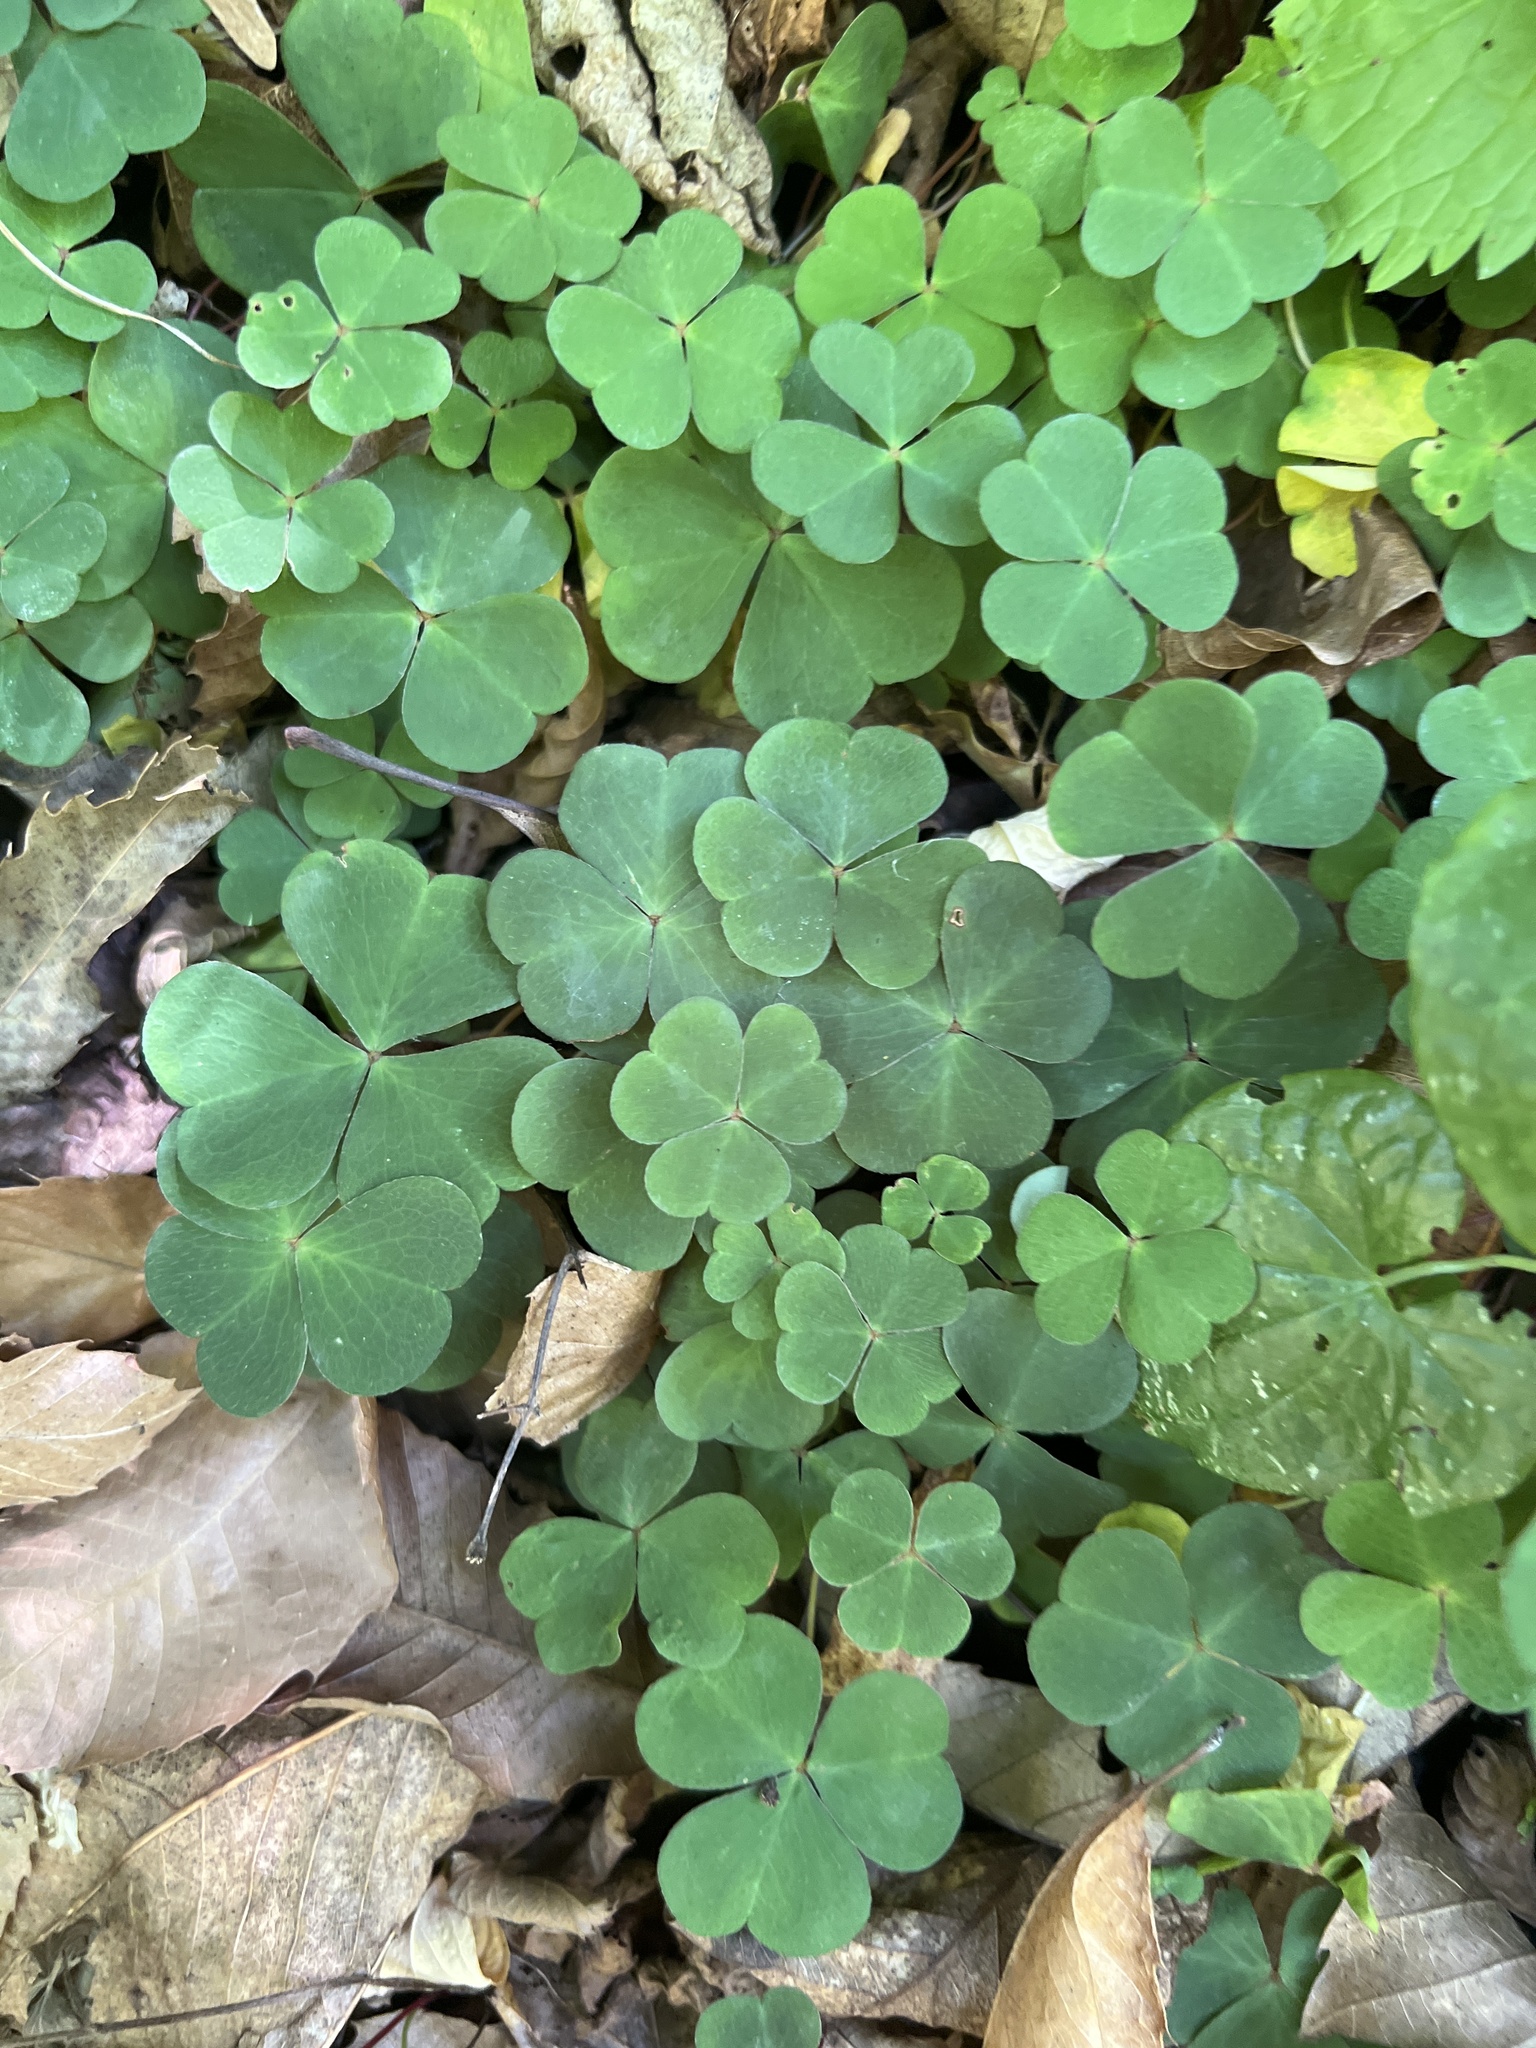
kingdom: Plantae
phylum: Tracheophyta
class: Magnoliopsida
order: Oxalidales
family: Oxalidaceae
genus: Oxalis
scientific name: Oxalis acetosella
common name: Wood-sorrel
